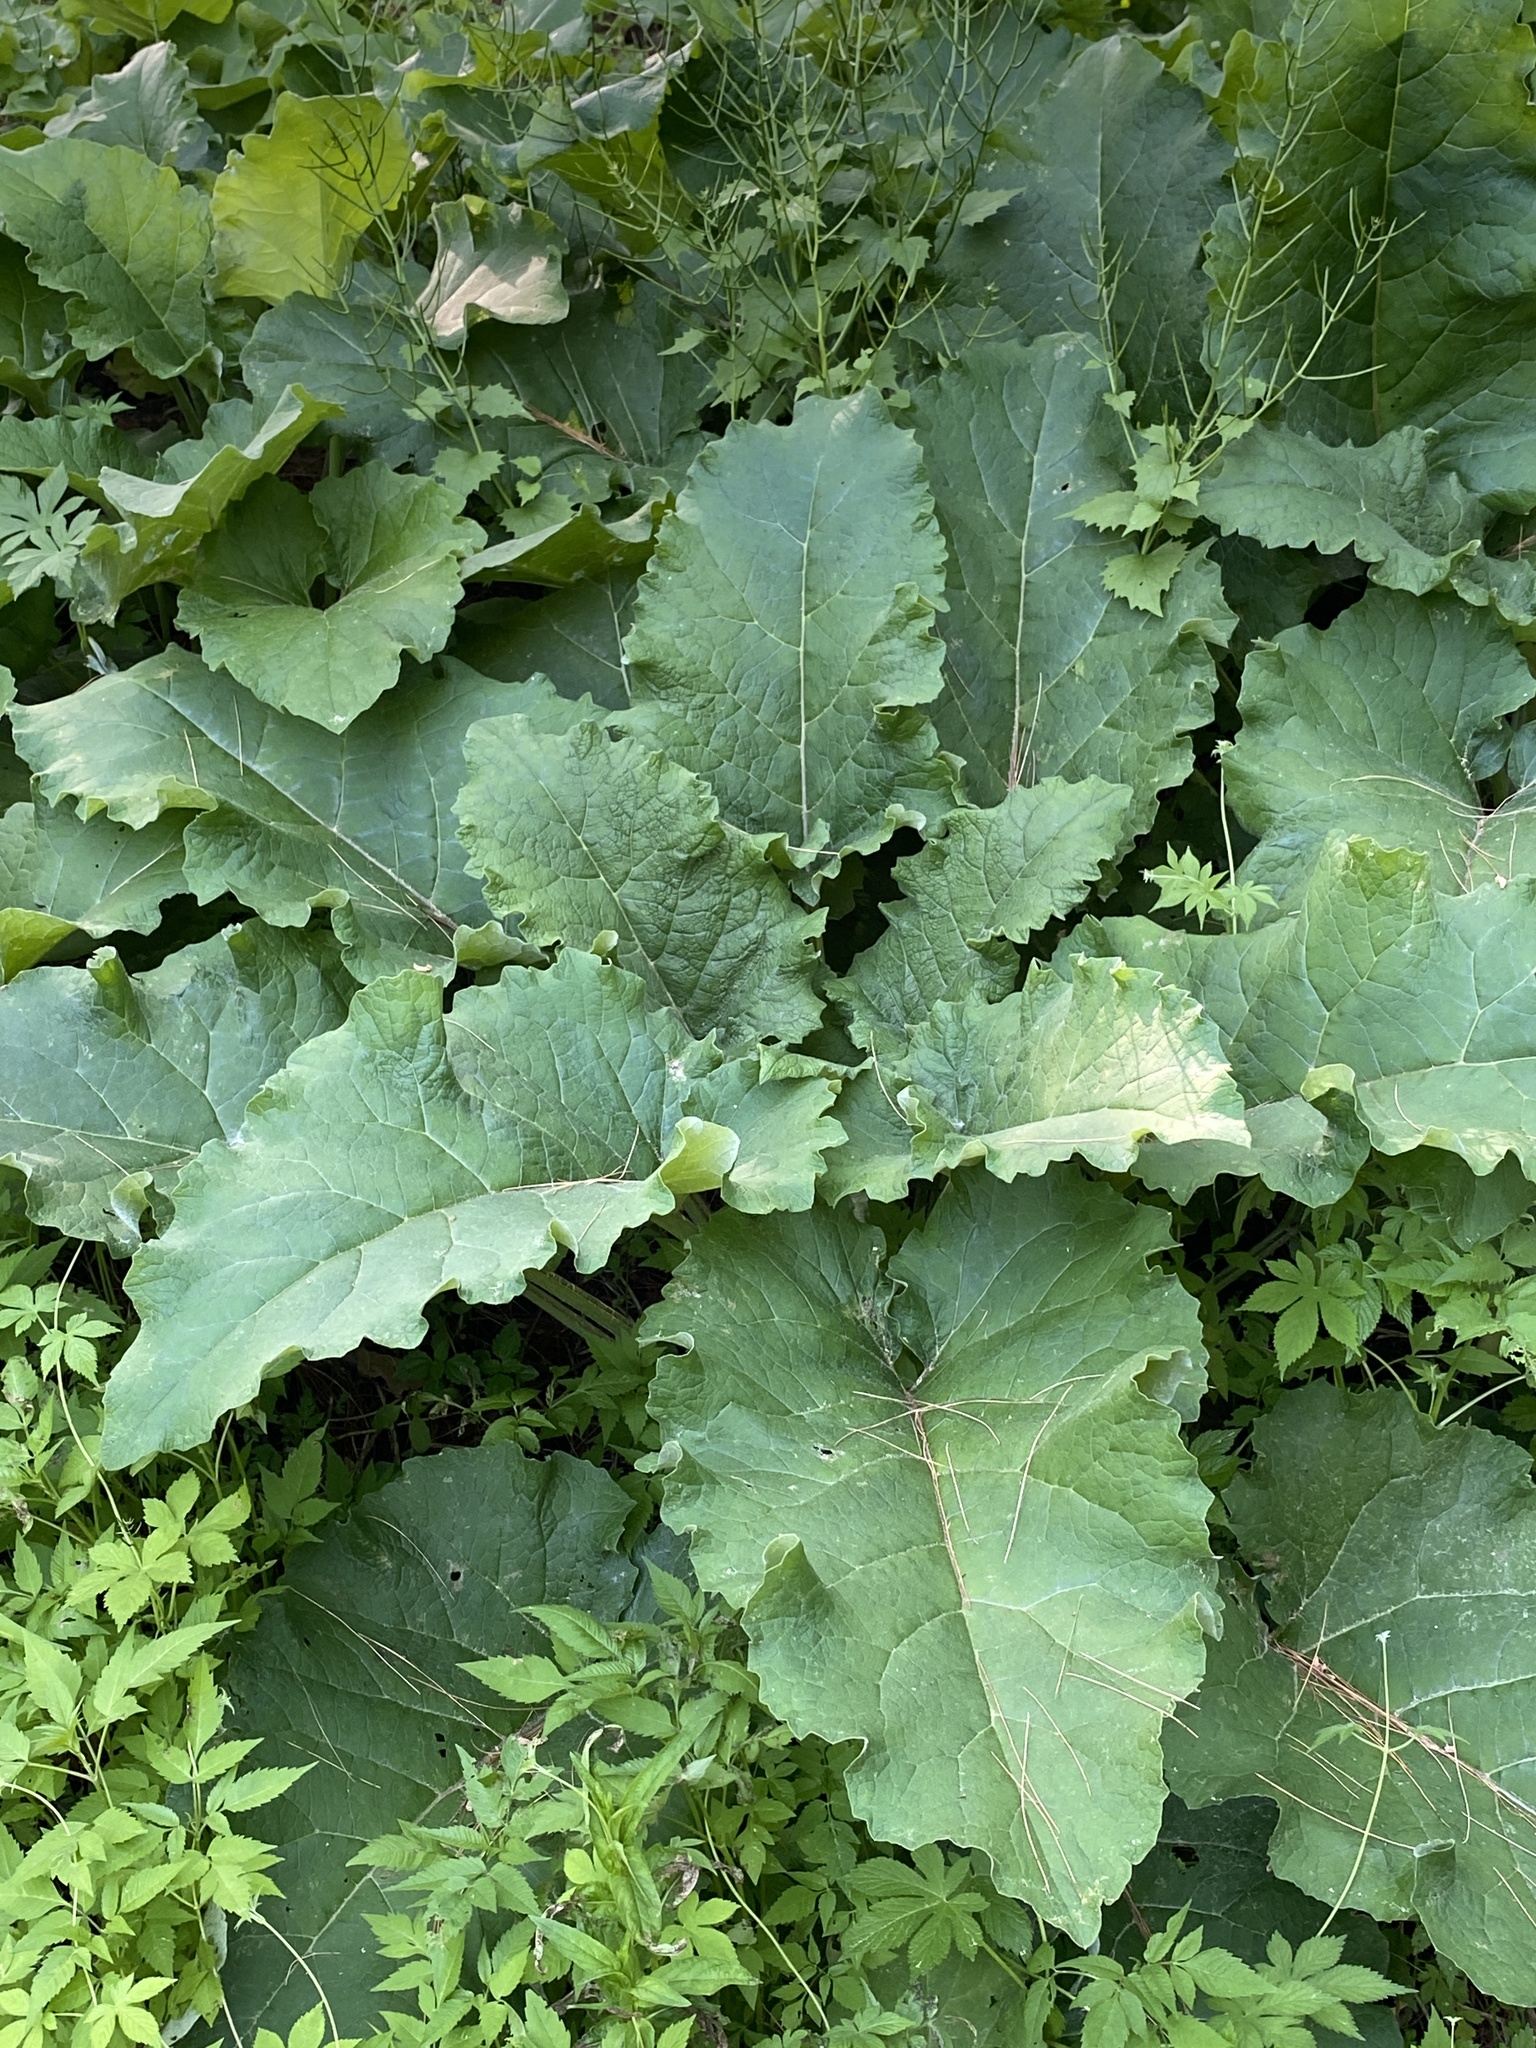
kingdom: Plantae
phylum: Tracheophyta
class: Magnoliopsida
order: Asterales
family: Asteraceae
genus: Arctium
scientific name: Arctium minus
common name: Lesser burdock
